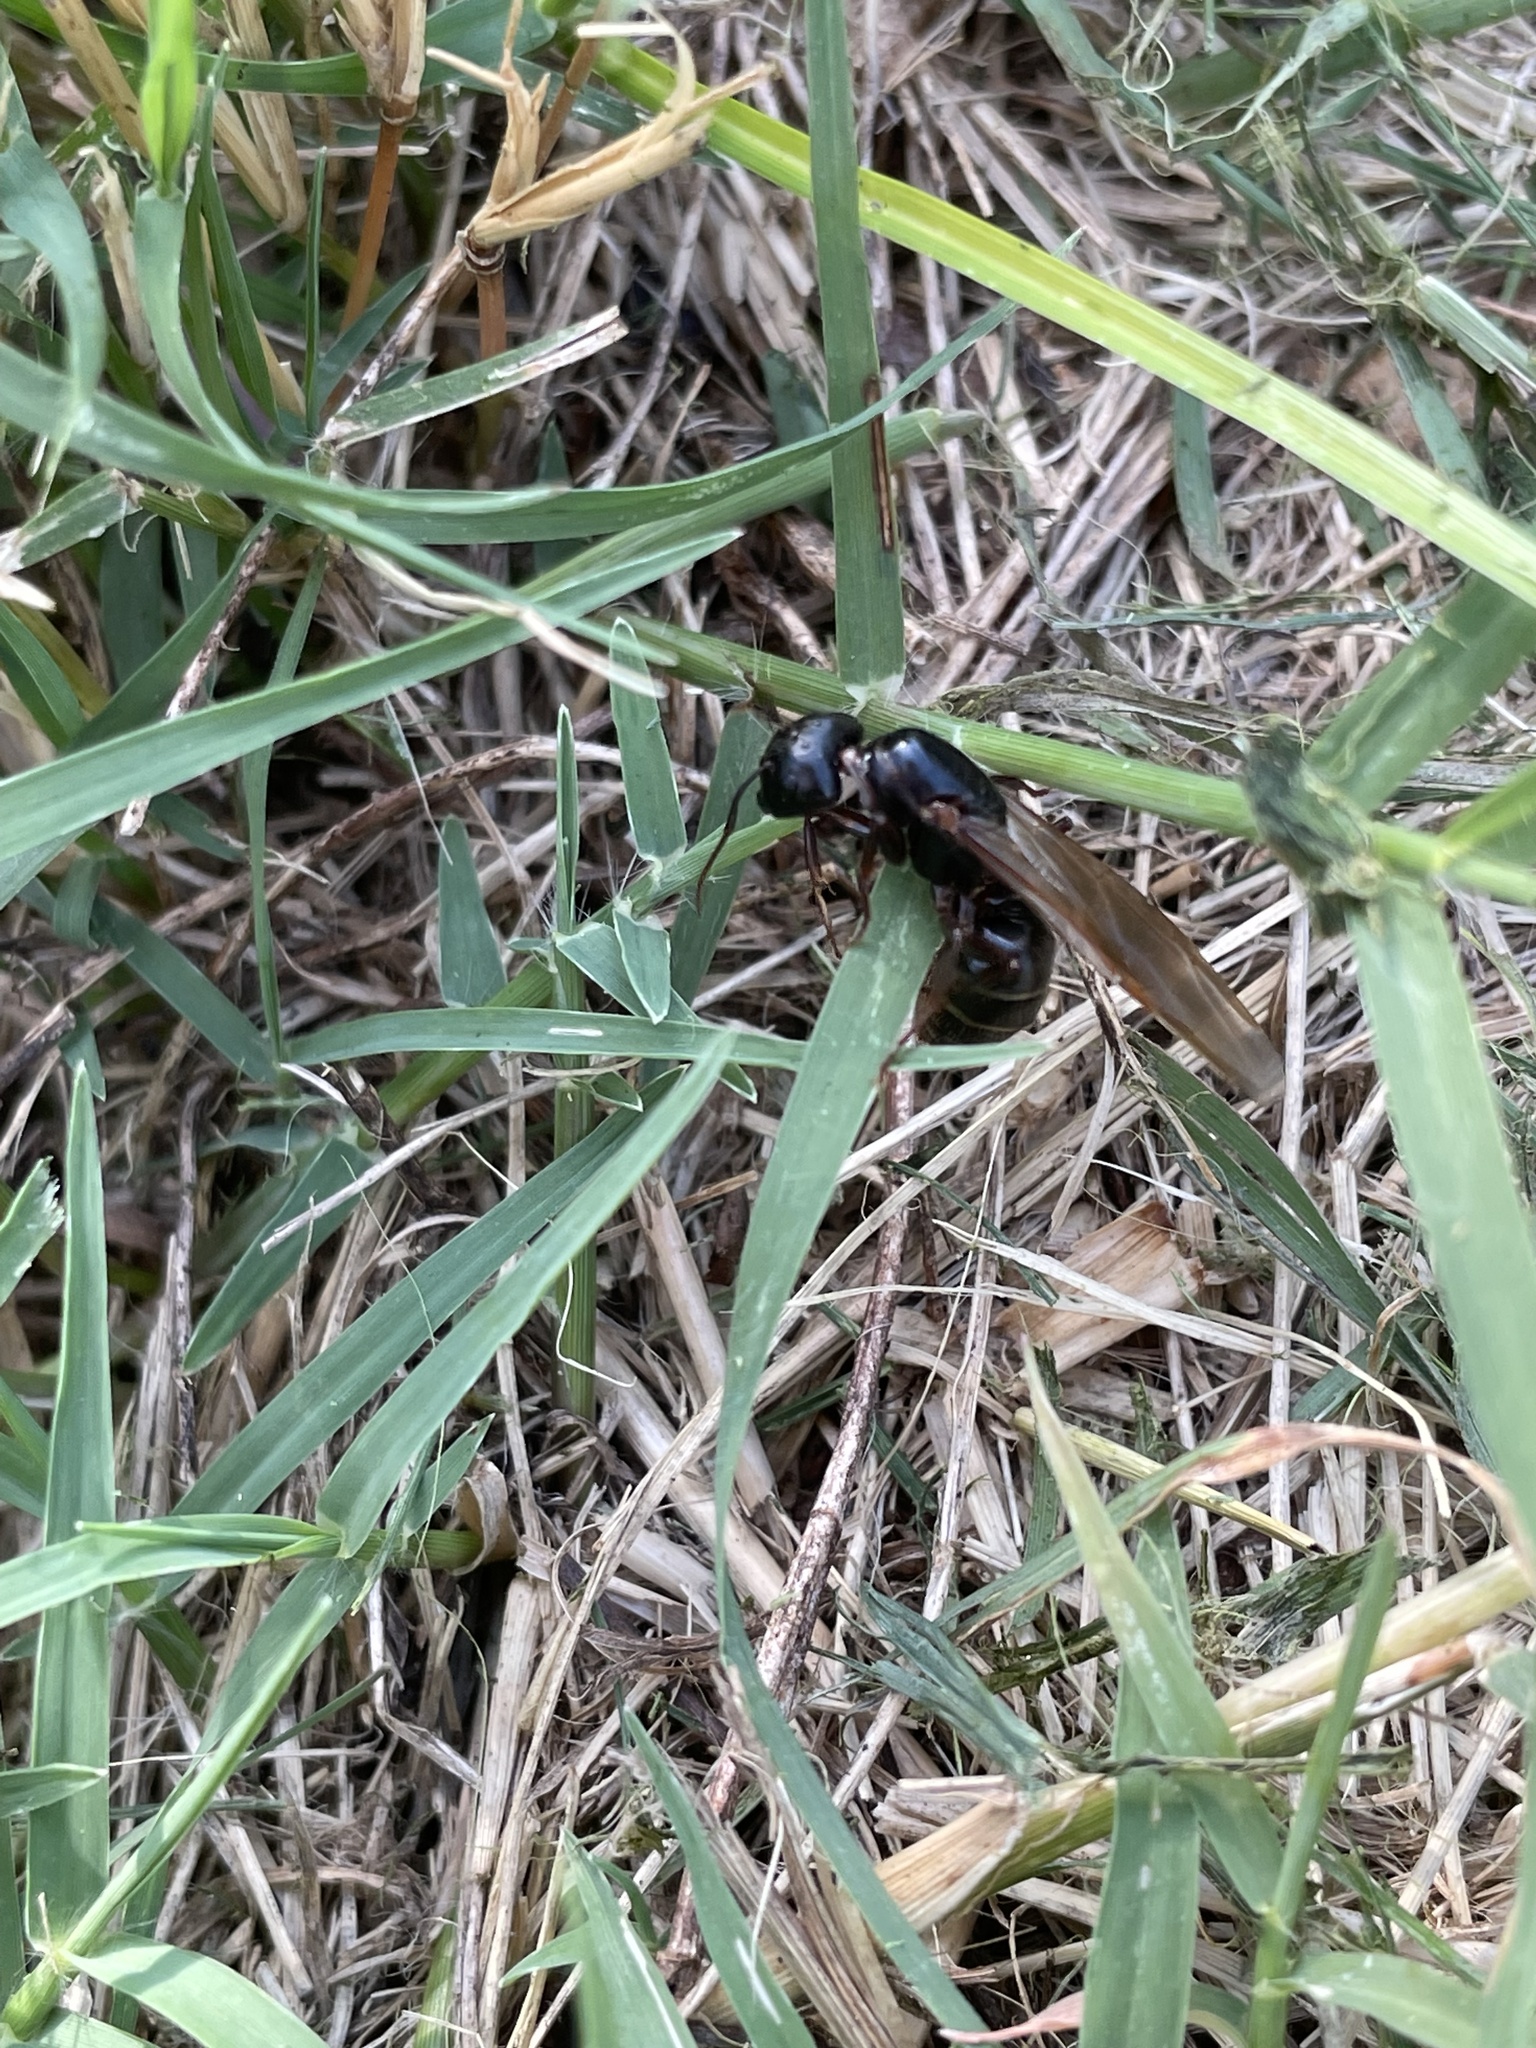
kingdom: Animalia
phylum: Arthropoda
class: Insecta
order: Hymenoptera
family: Formicidae
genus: Camponotus
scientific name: Camponotus pennsylvanicus
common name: Black carpenter ant
